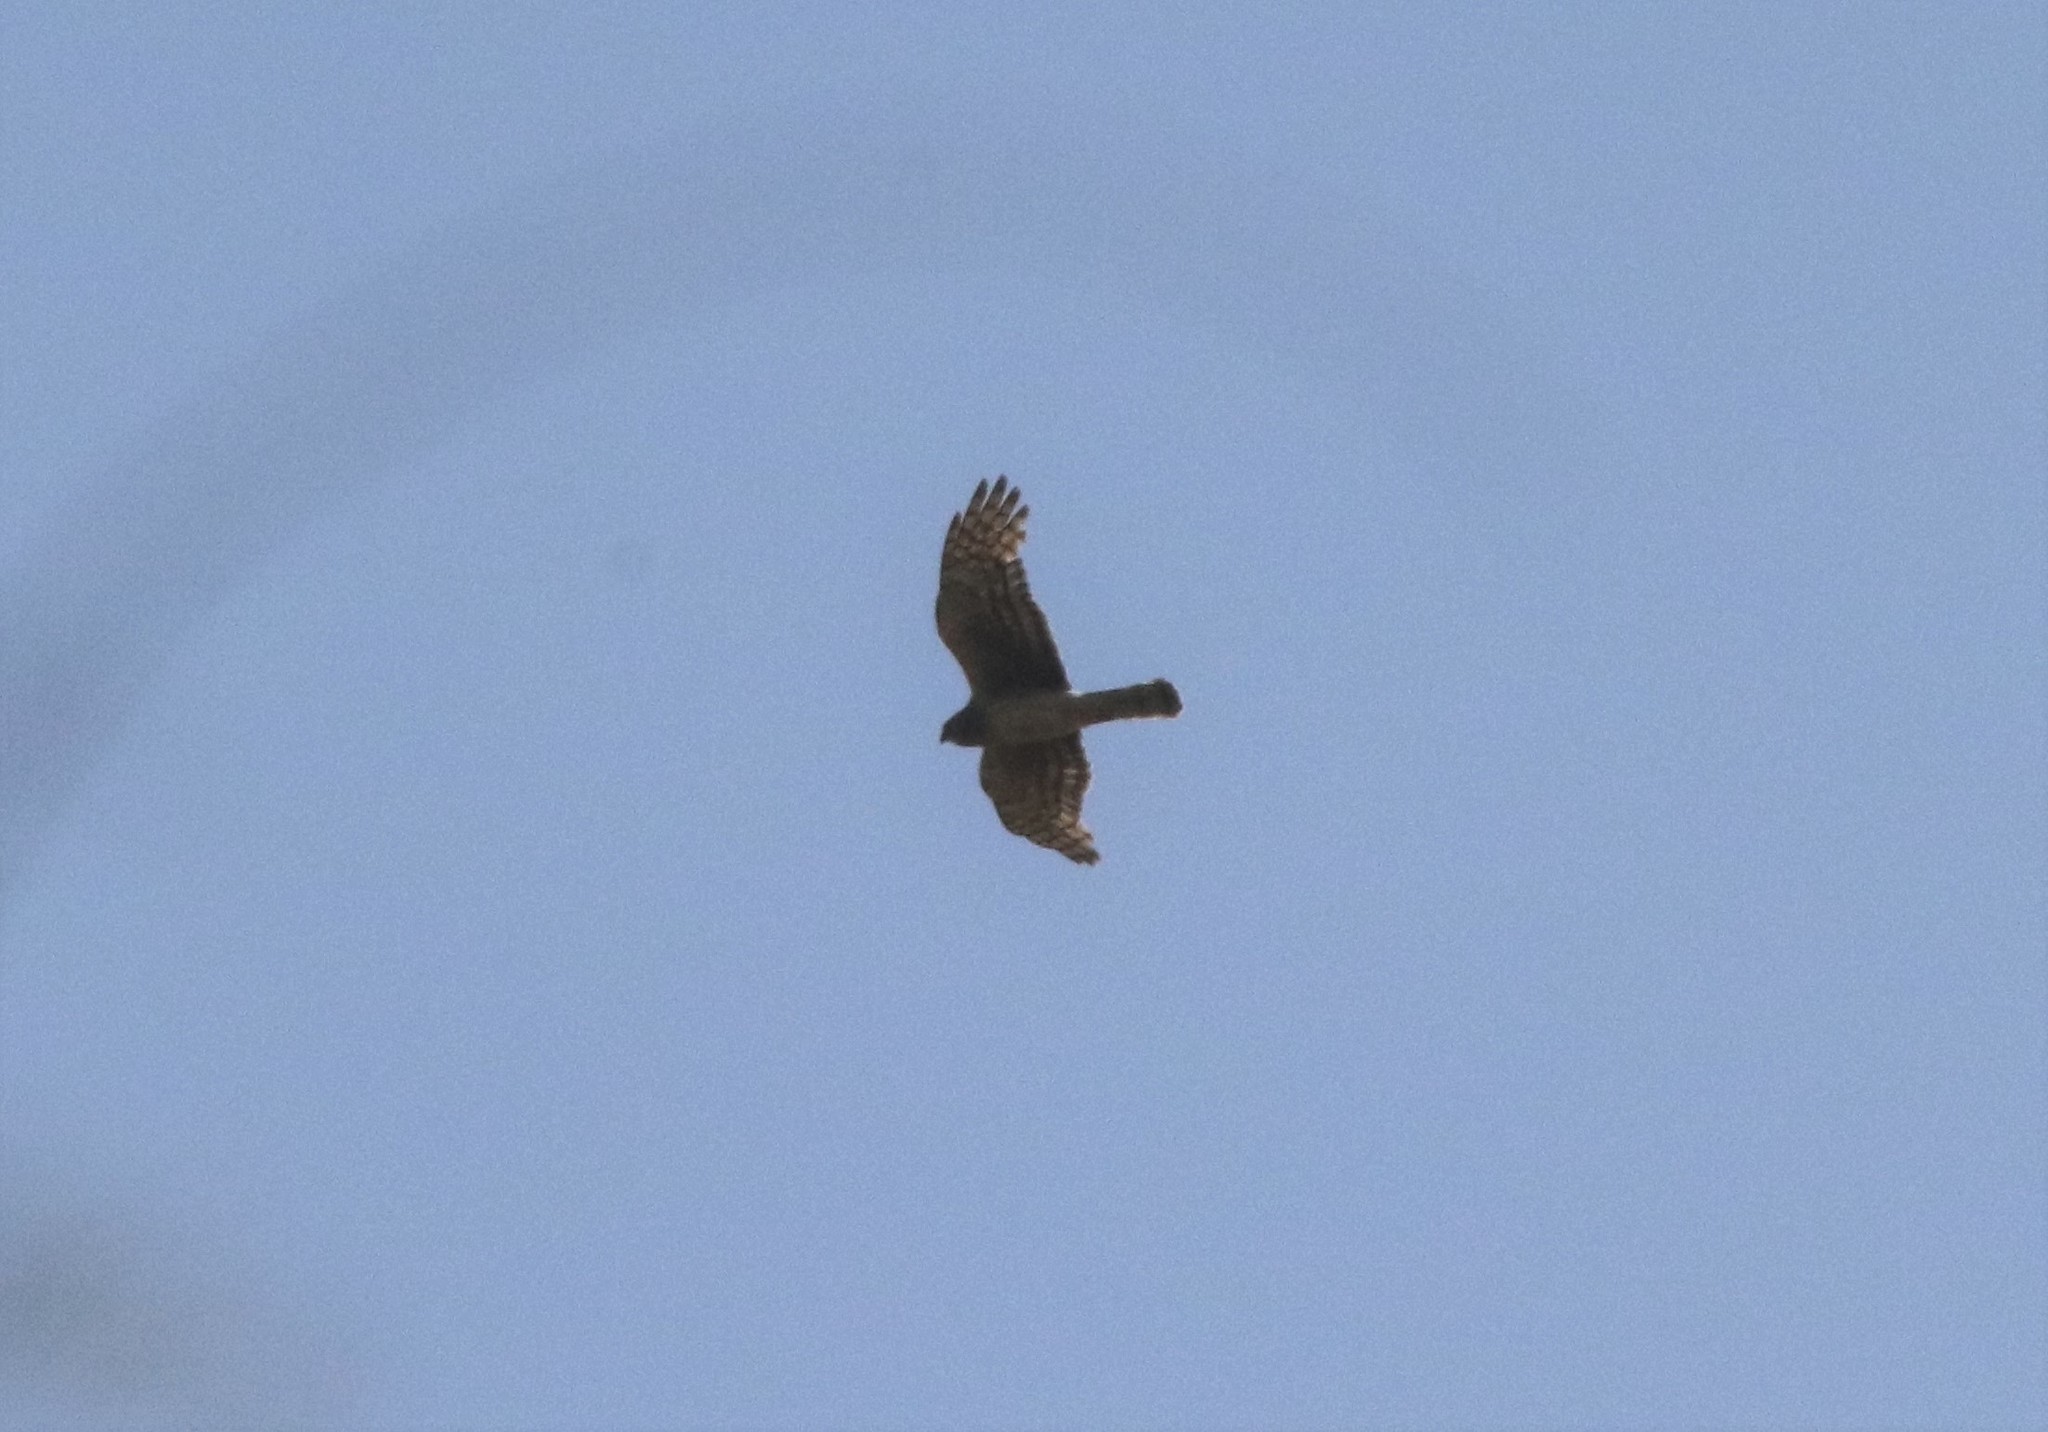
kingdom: Animalia
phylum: Chordata
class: Aves
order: Accipitriformes
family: Accipitridae
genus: Circus
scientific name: Circus cyaneus
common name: Hen harrier
